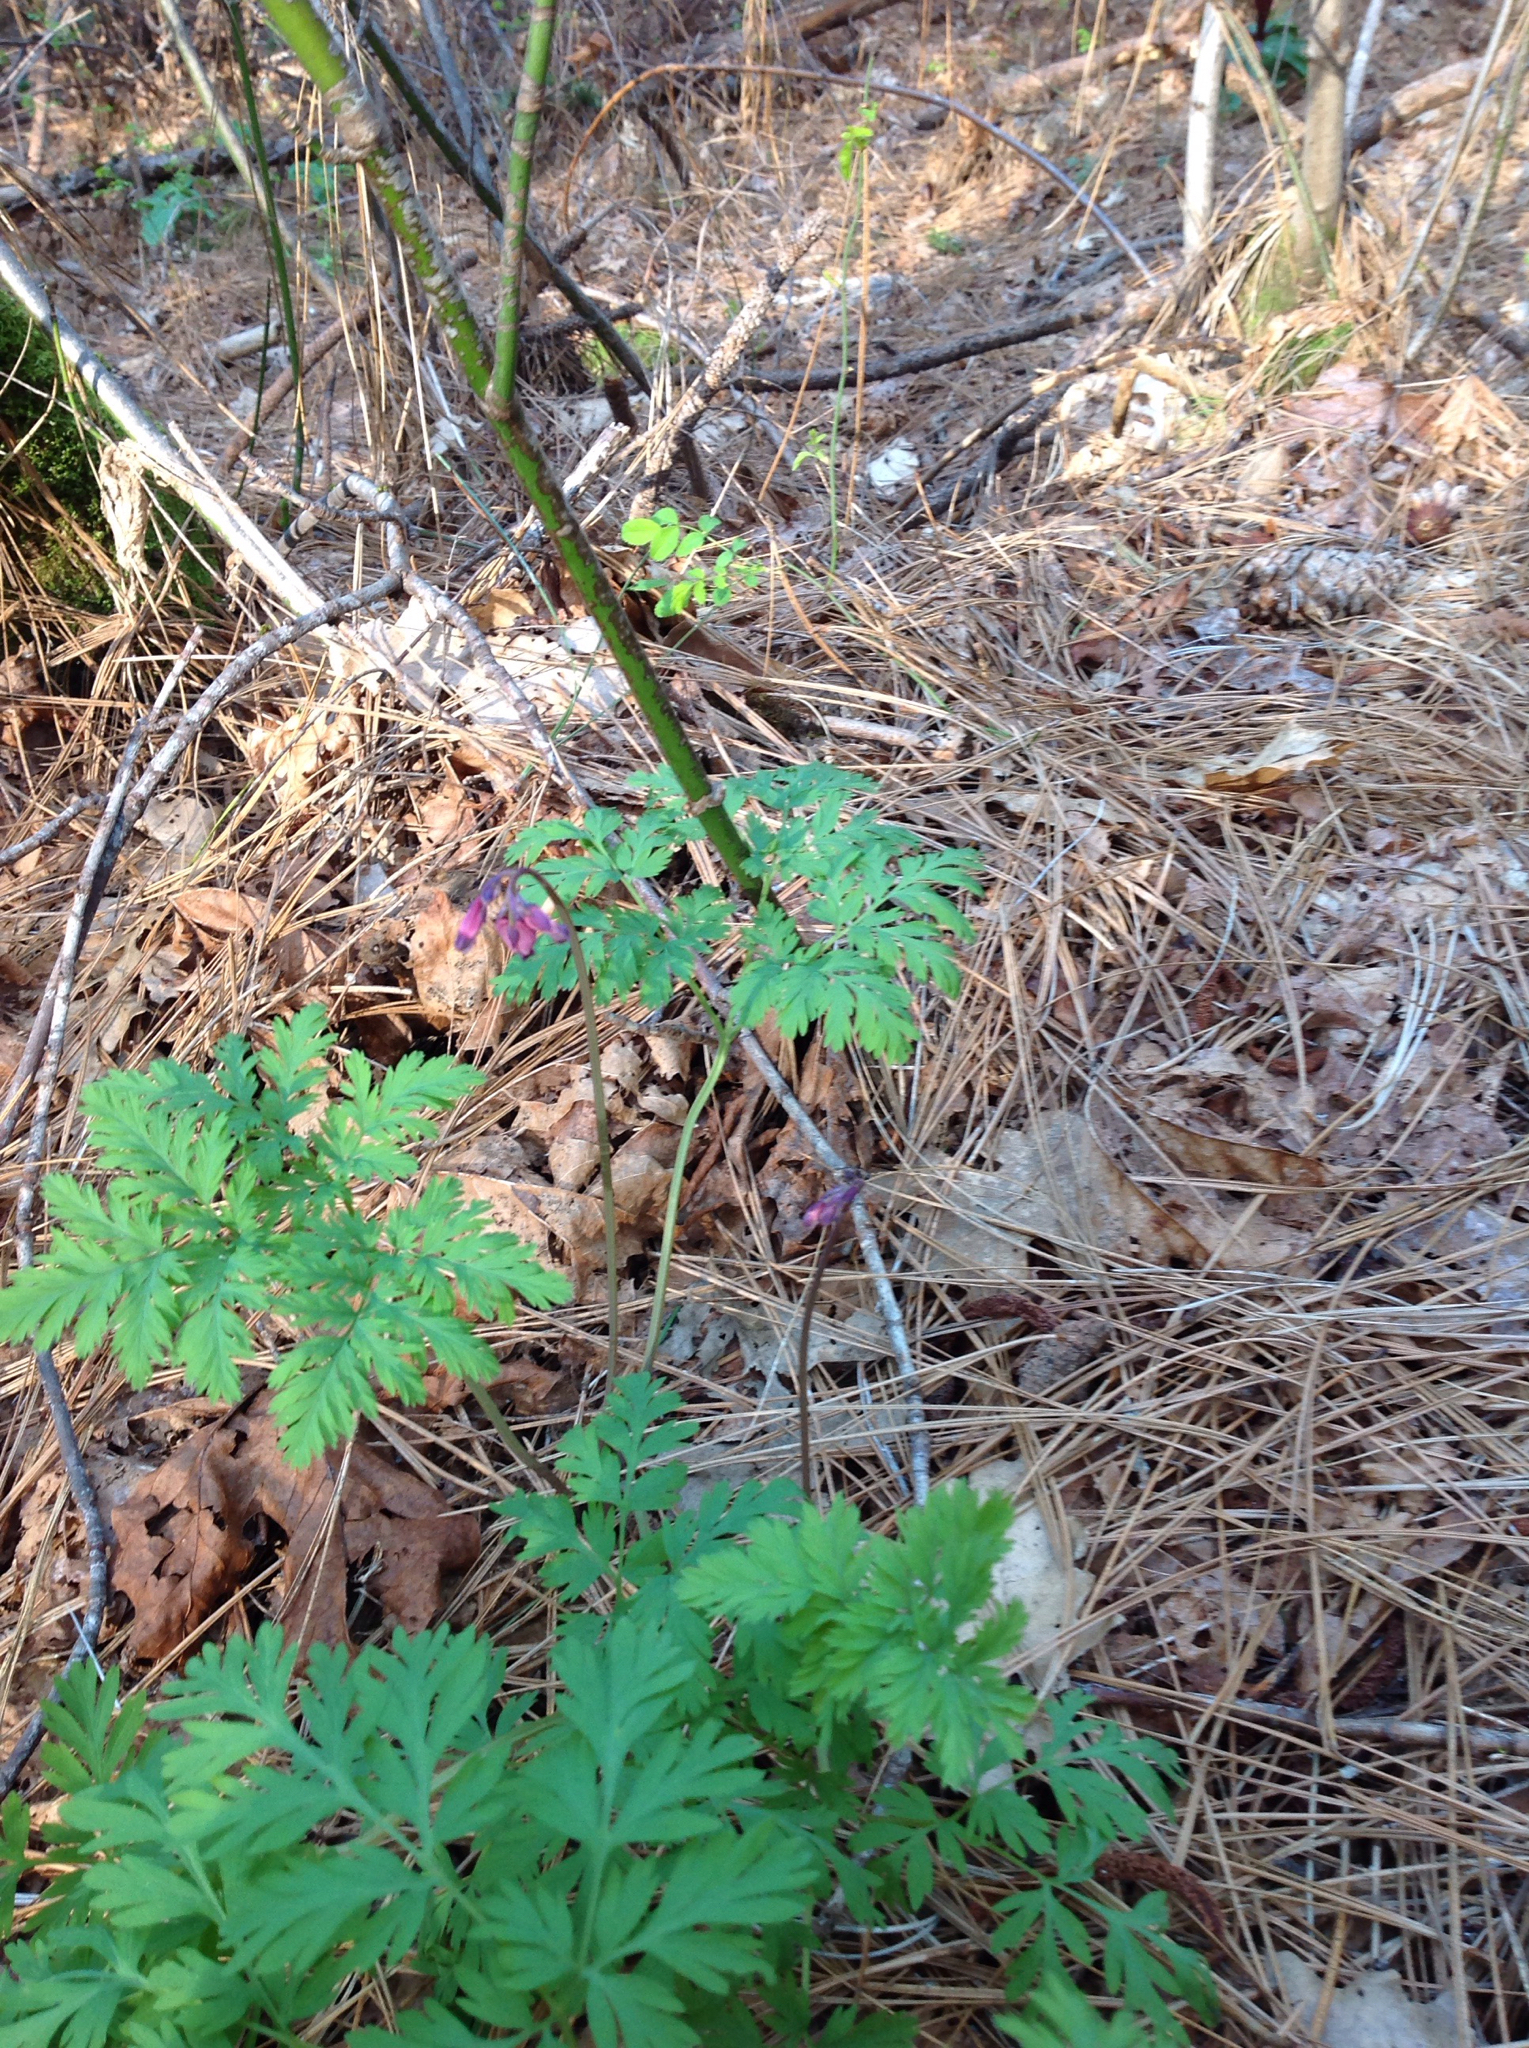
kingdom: Plantae
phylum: Tracheophyta
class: Magnoliopsida
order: Ranunculales
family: Papaveraceae
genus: Dicentra
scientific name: Dicentra formosa
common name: Bleeding-heart
